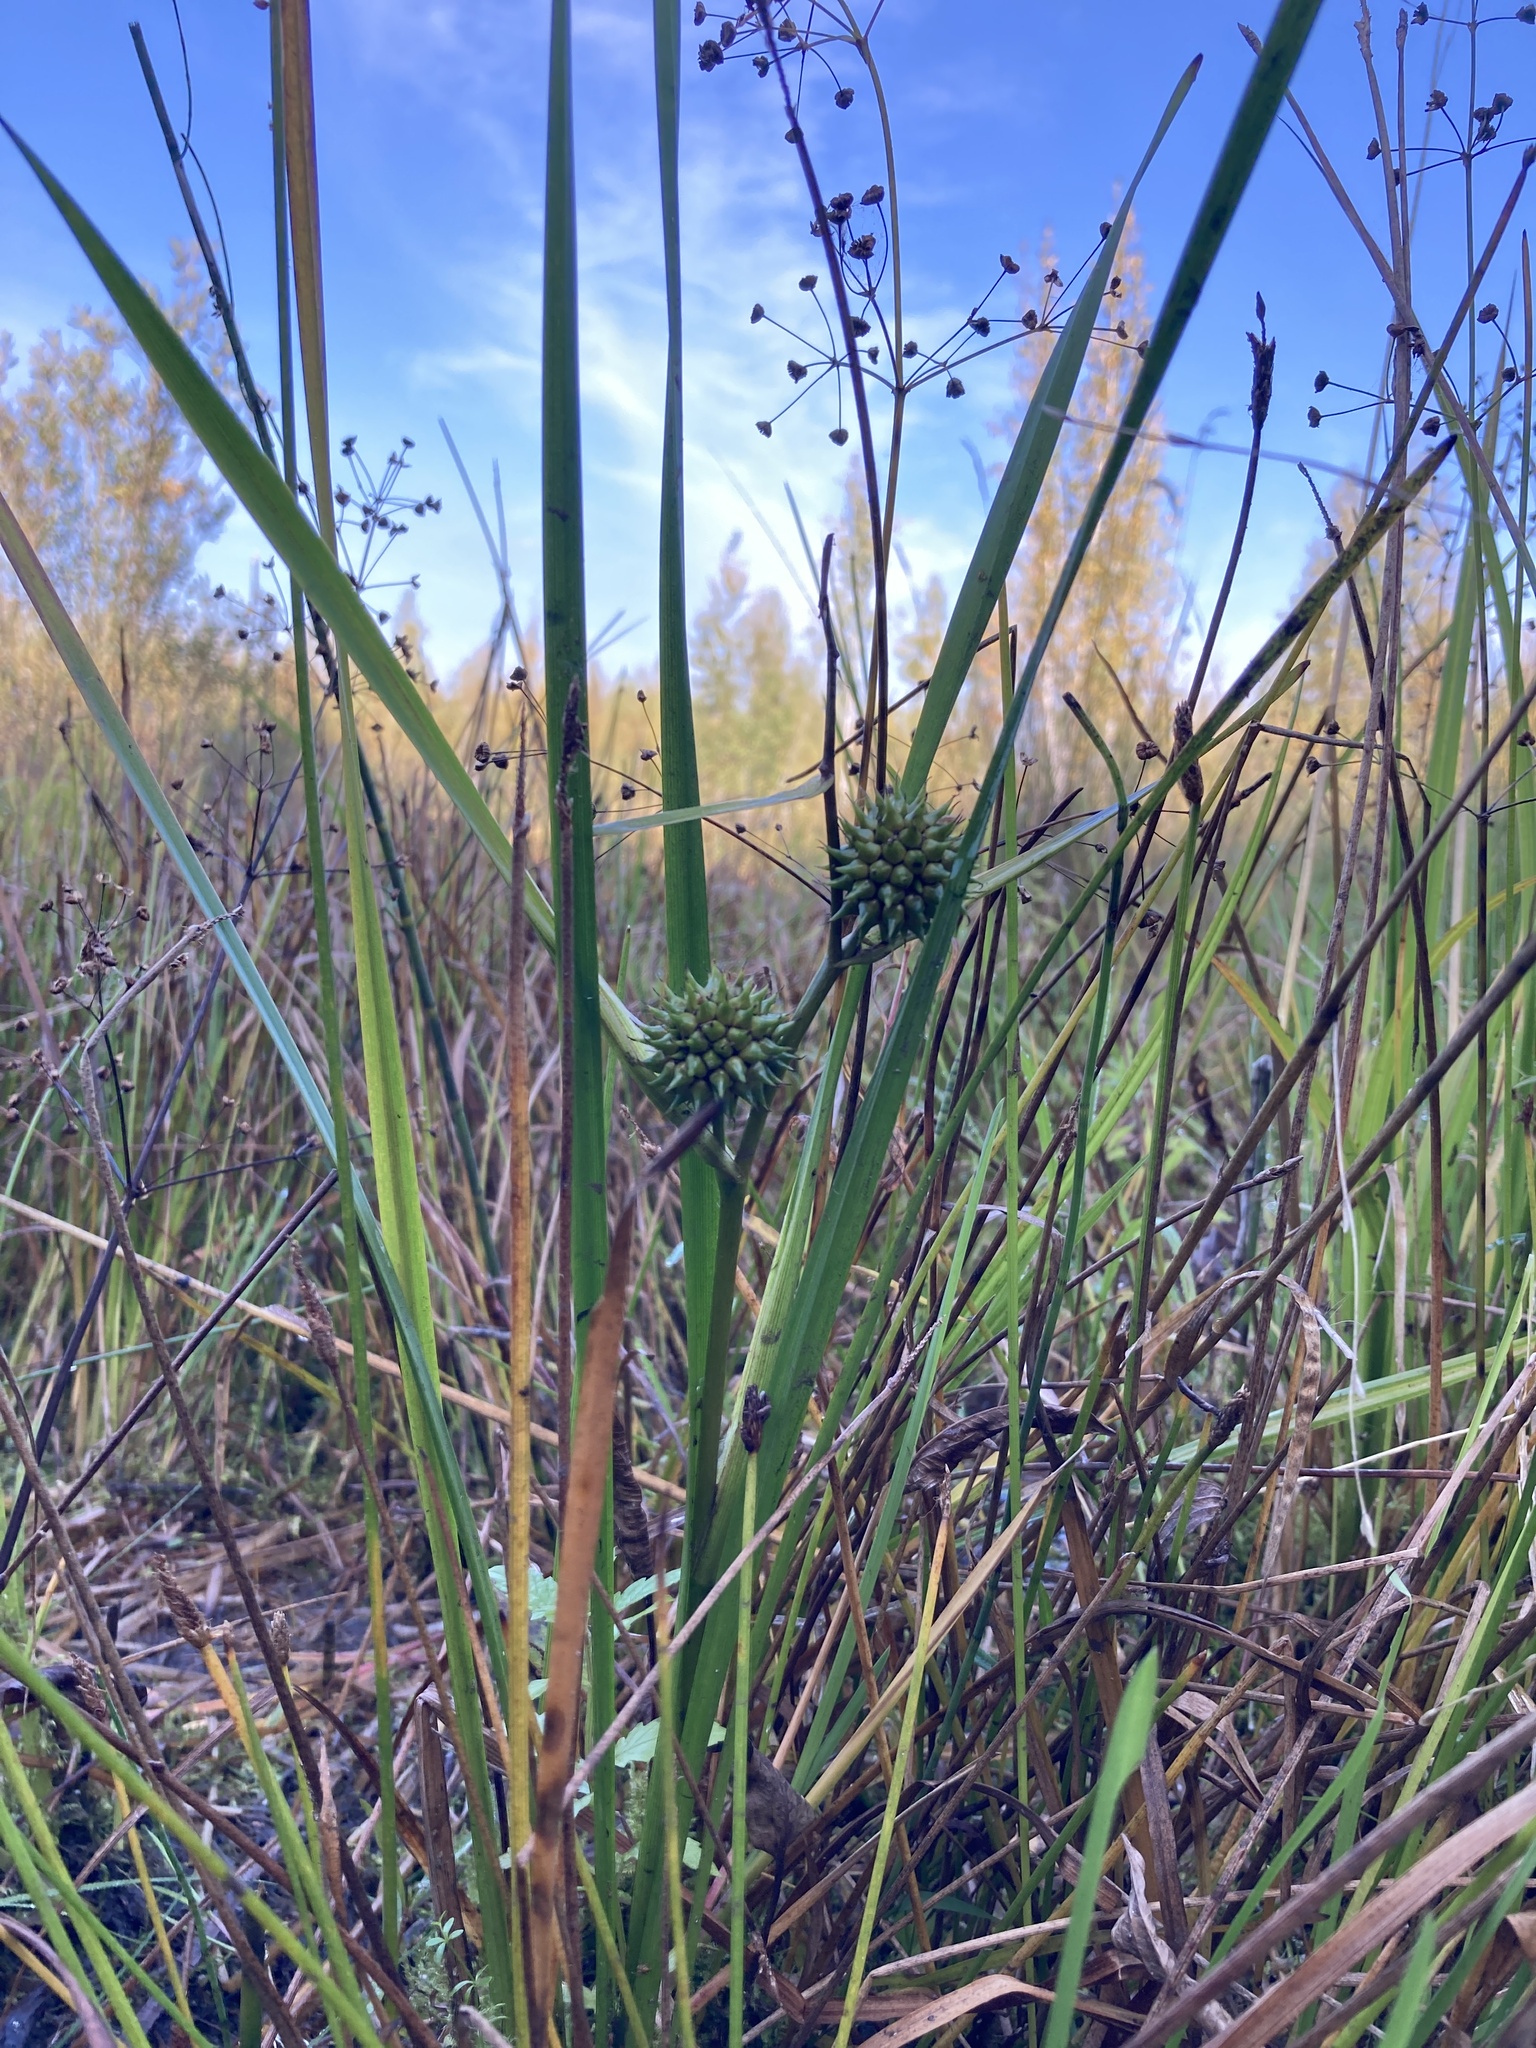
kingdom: Plantae
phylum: Tracheophyta
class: Liliopsida
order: Poales
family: Typhaceae
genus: Sparganium
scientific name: Sparganium erectum
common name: Branched bur-reed
